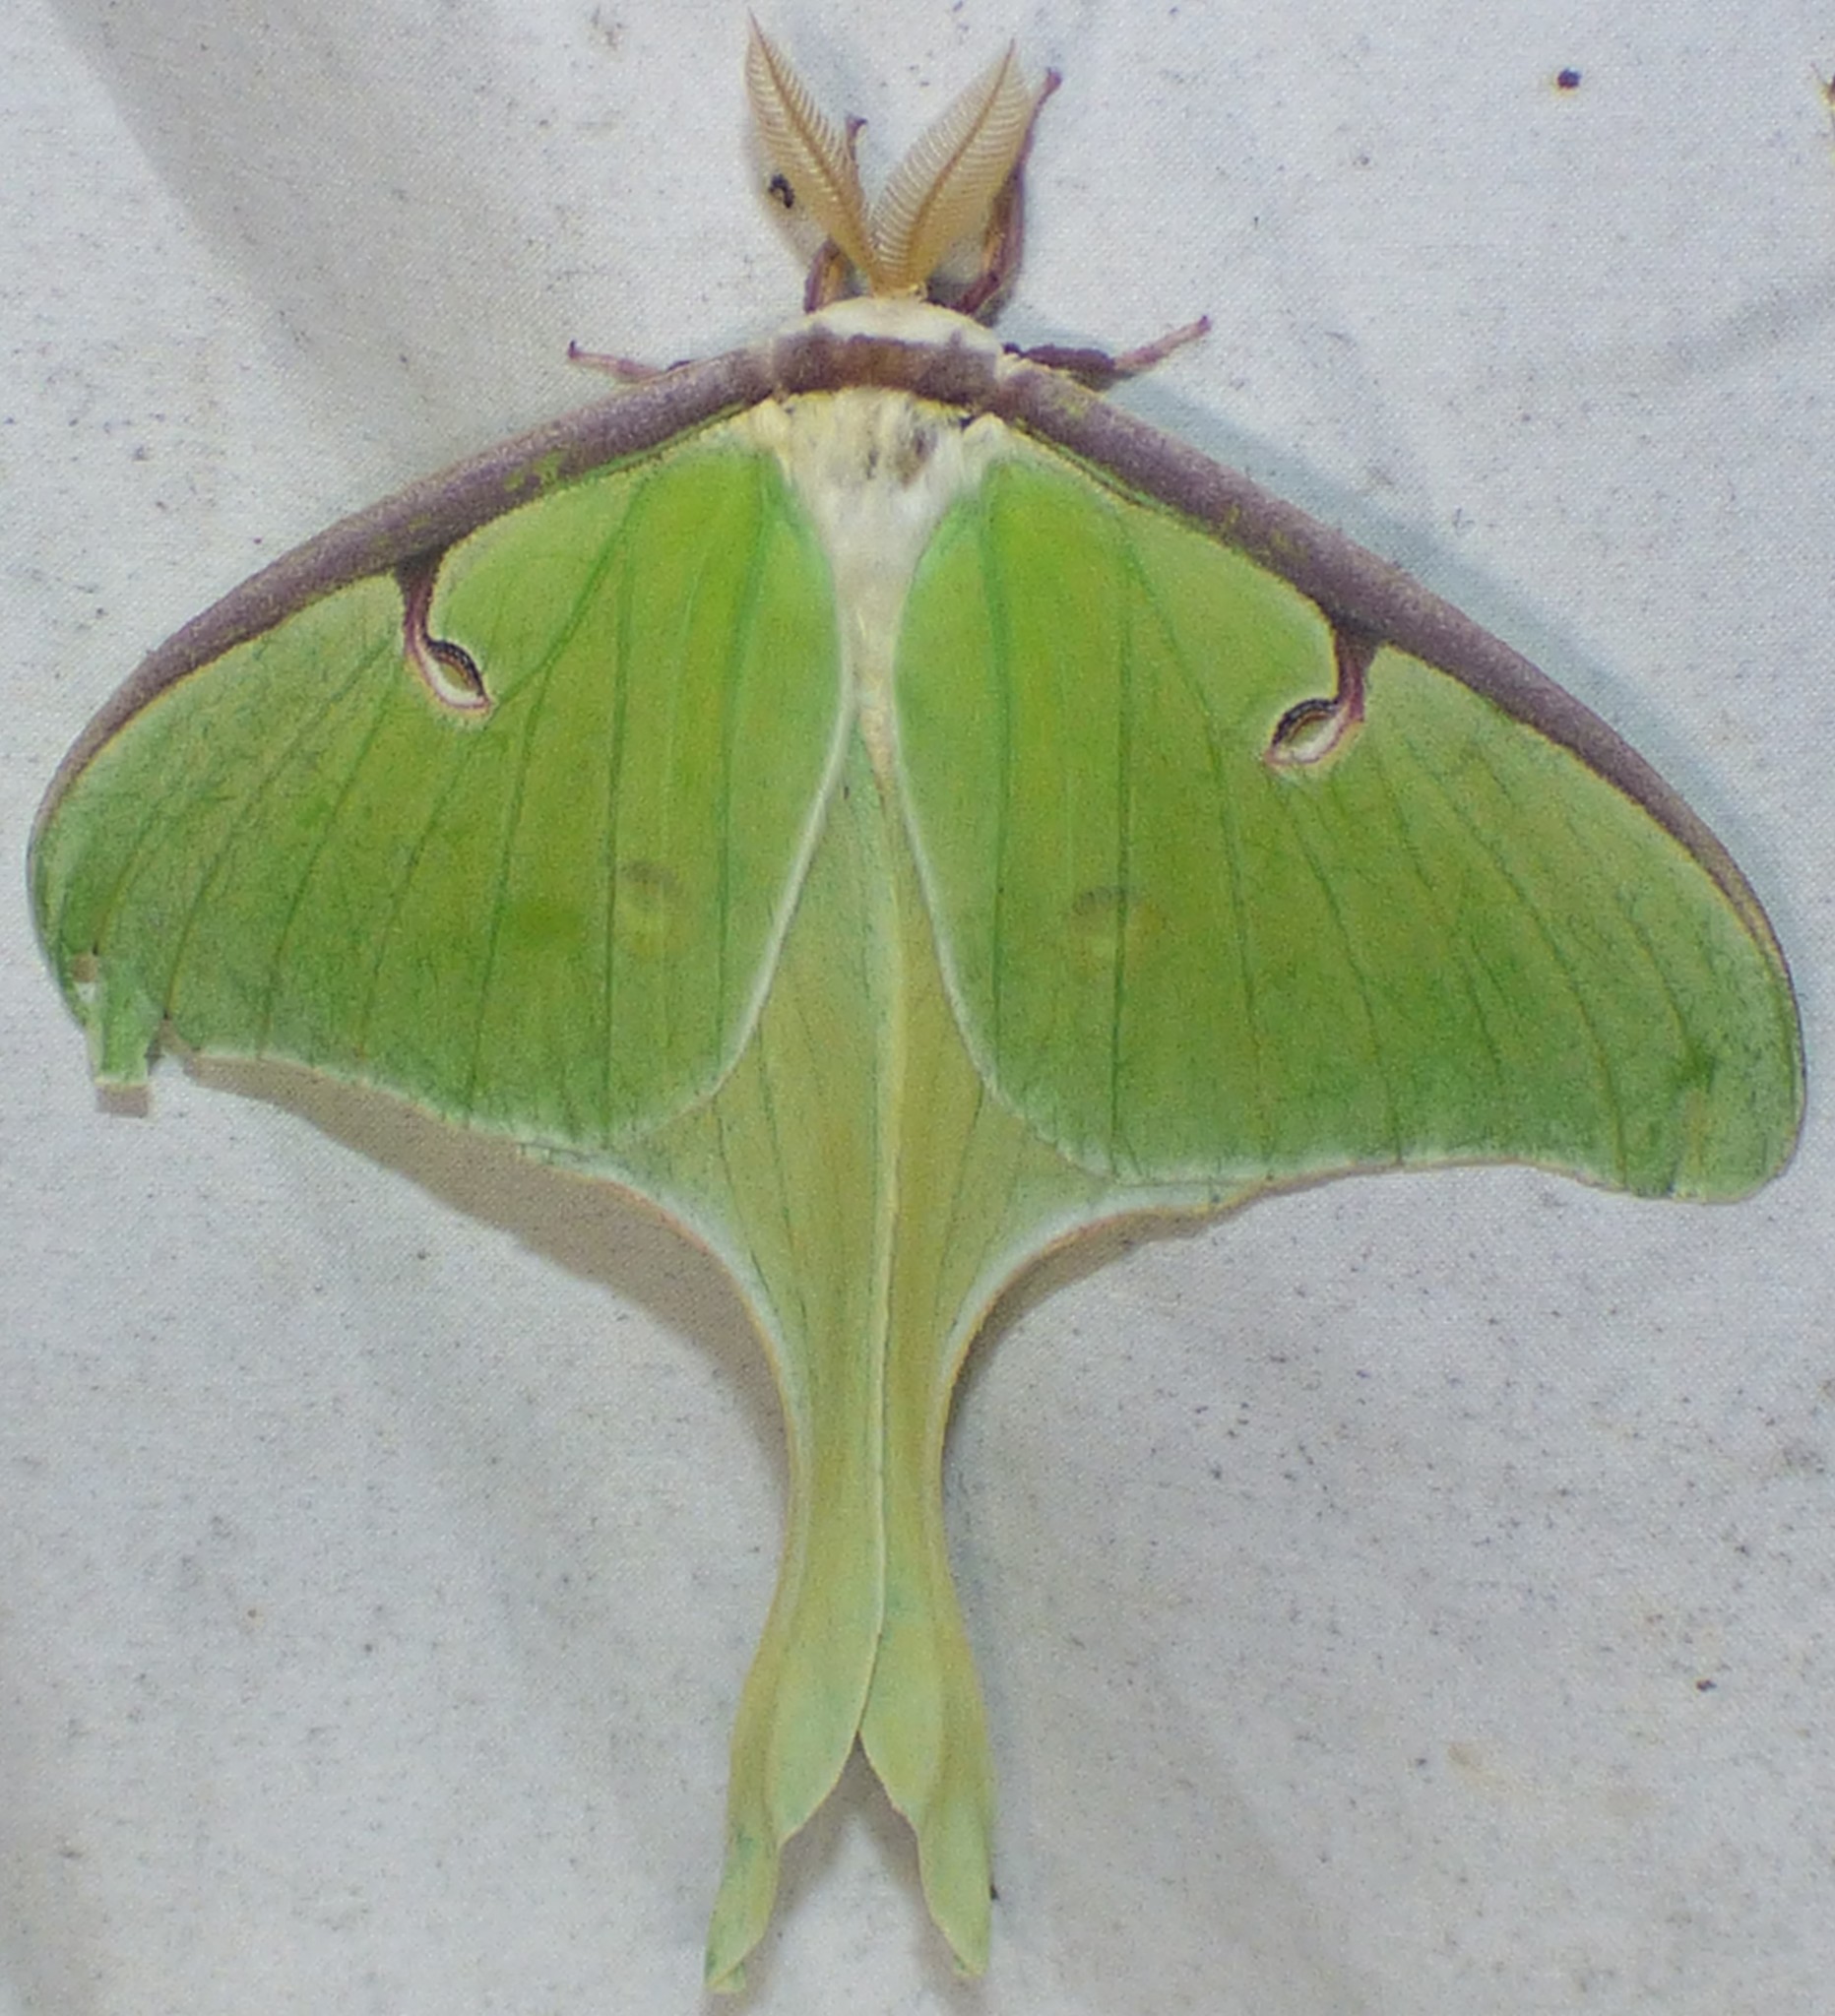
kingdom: Animalia
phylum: Arthropoda
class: Insecta
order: Lepidoptera
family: Saturniidae
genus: Actias
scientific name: Actias luna
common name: Luna moth
